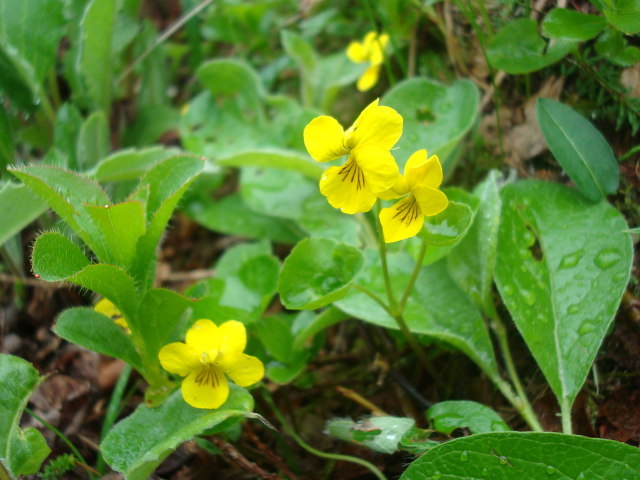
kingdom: Plantae
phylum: Tracheophyta
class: Magnoliopsida
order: Malpighiales
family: Violaceae
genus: Viola
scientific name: Viola crassa
